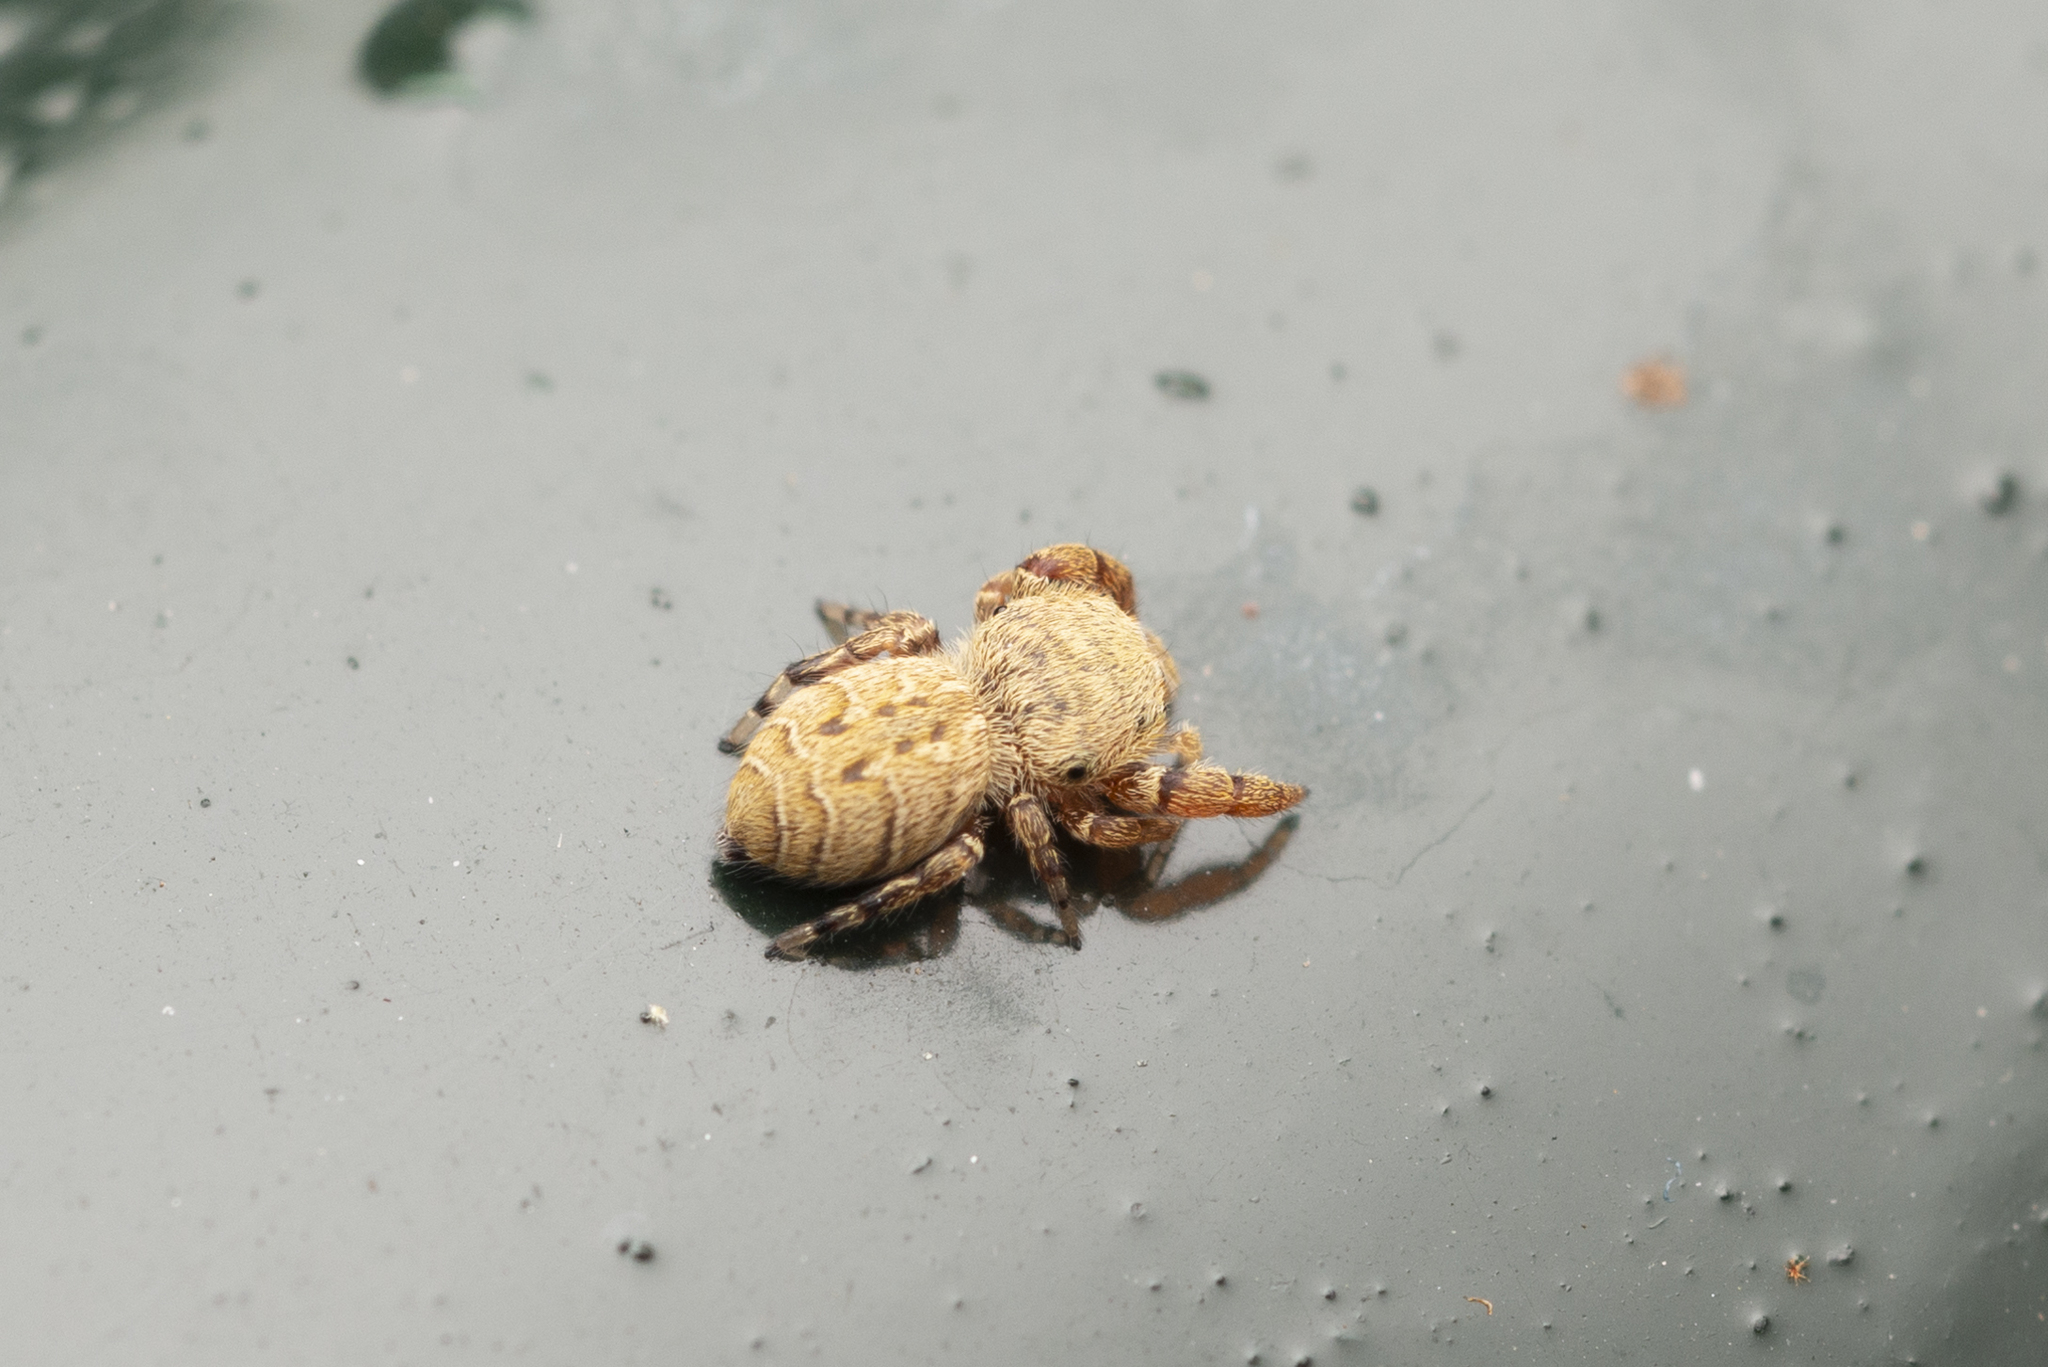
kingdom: Animalia
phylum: Arthropoda
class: Arachnida
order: Araneae
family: Salticidae
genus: Rhene
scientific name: Rhene flavicomans
